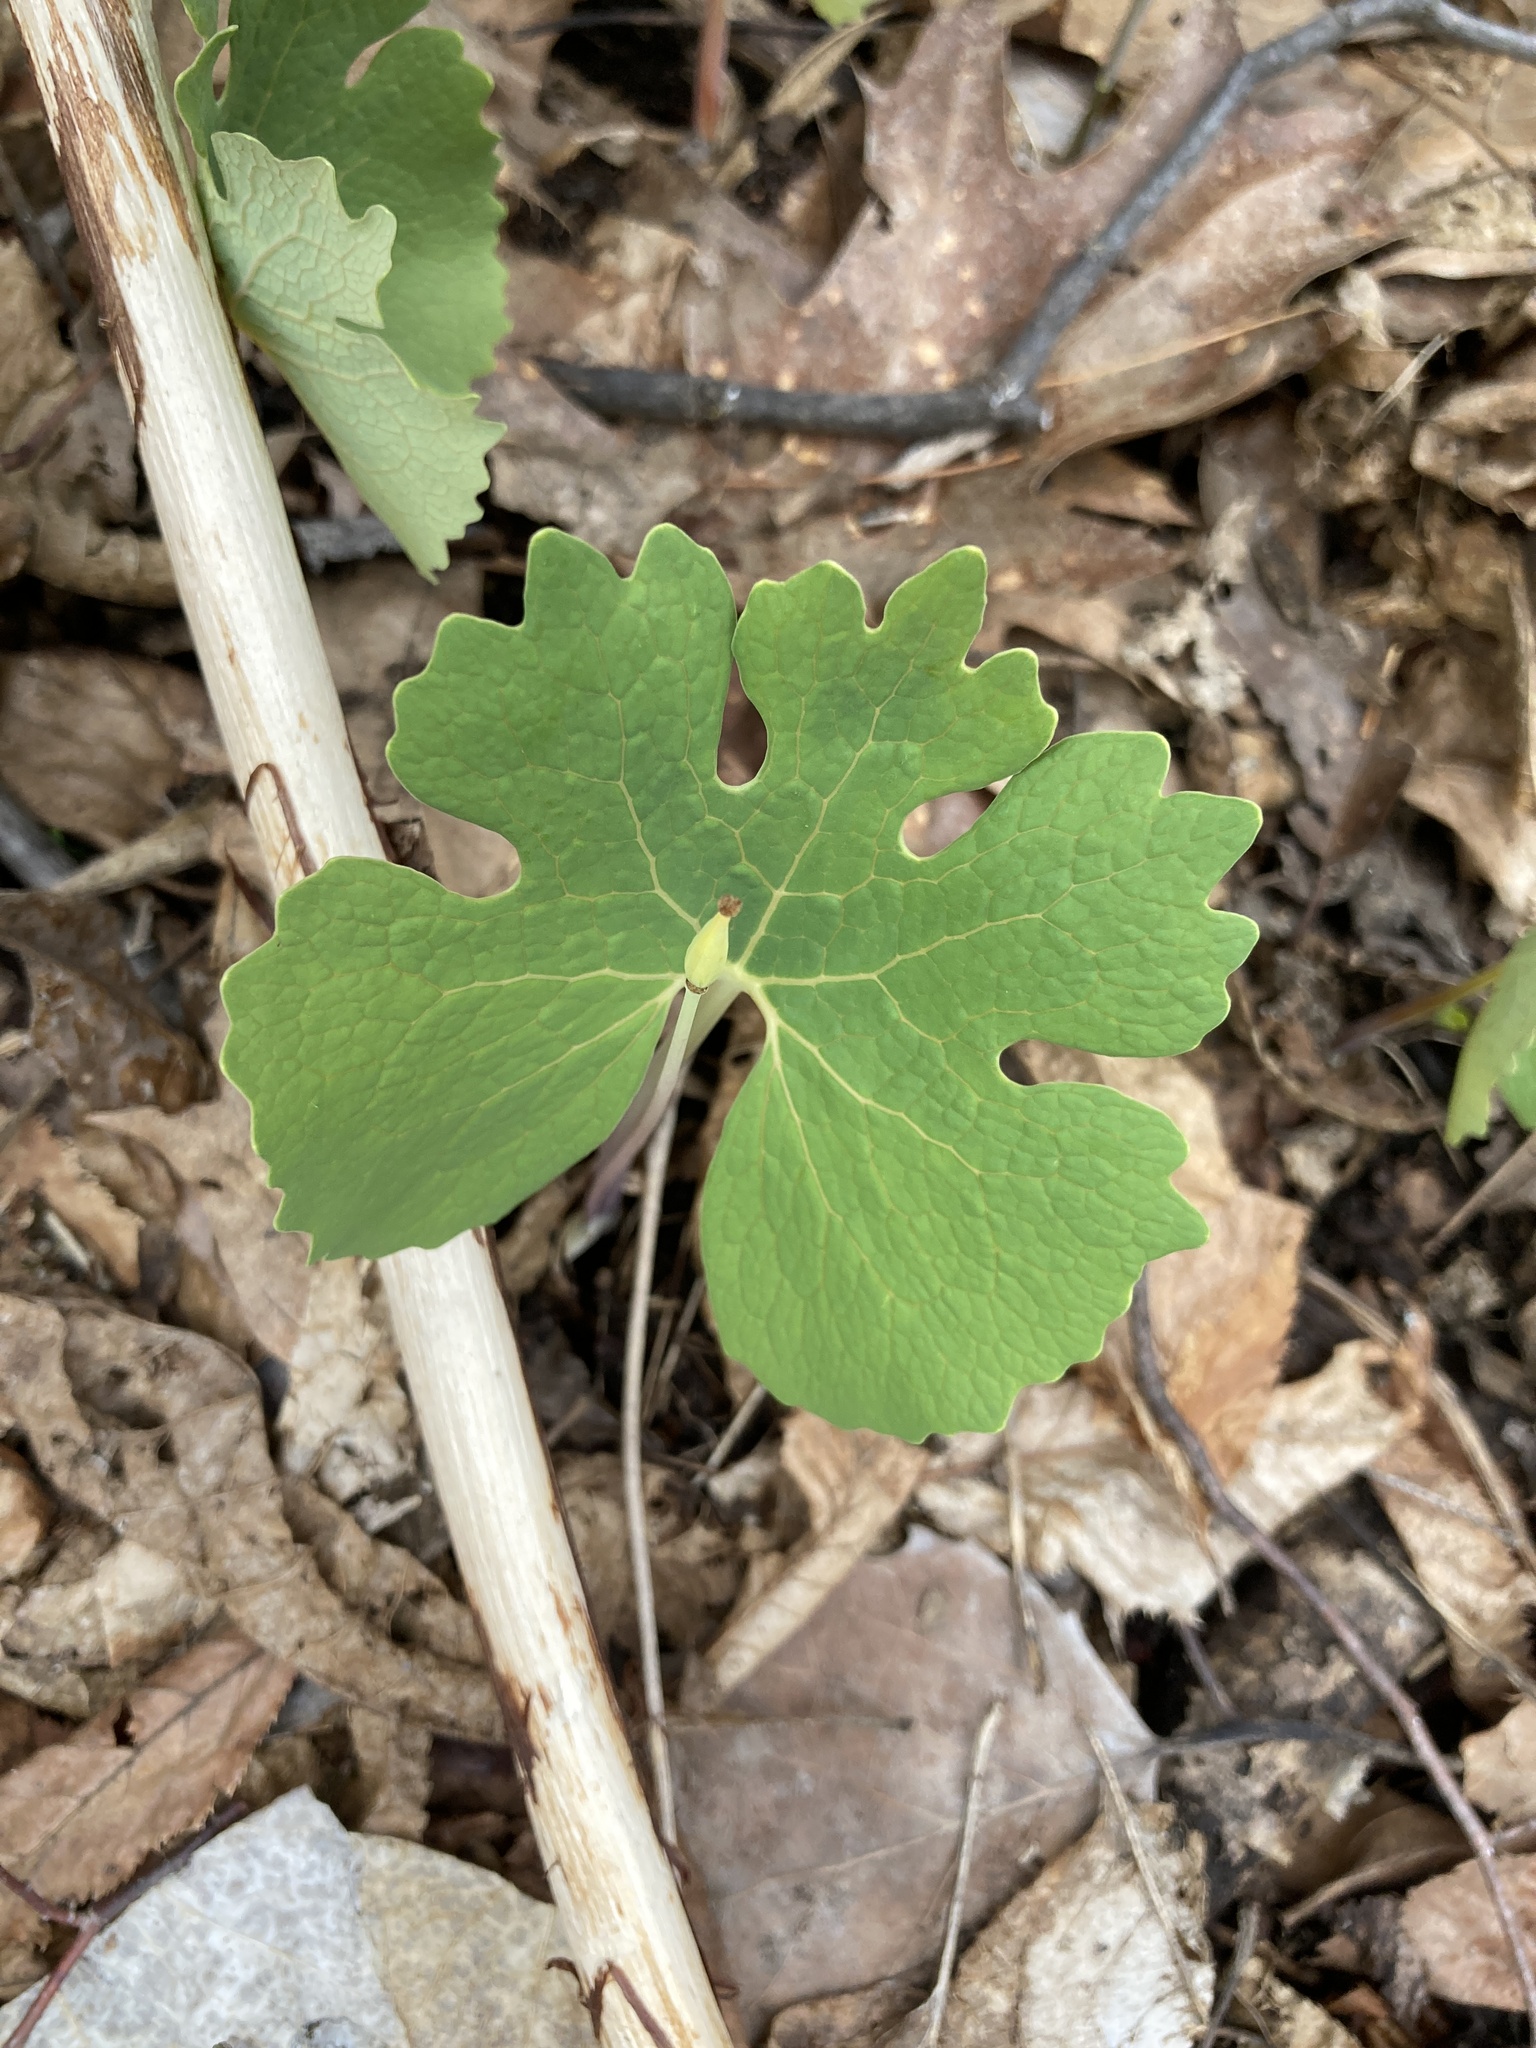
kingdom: Plantae
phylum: Tracheophyta
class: Magnoliopsida
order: Ranunculales
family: Papaveraceae
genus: Sanguinaria
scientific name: Sanguinaria canadensis
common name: Bloodroot
